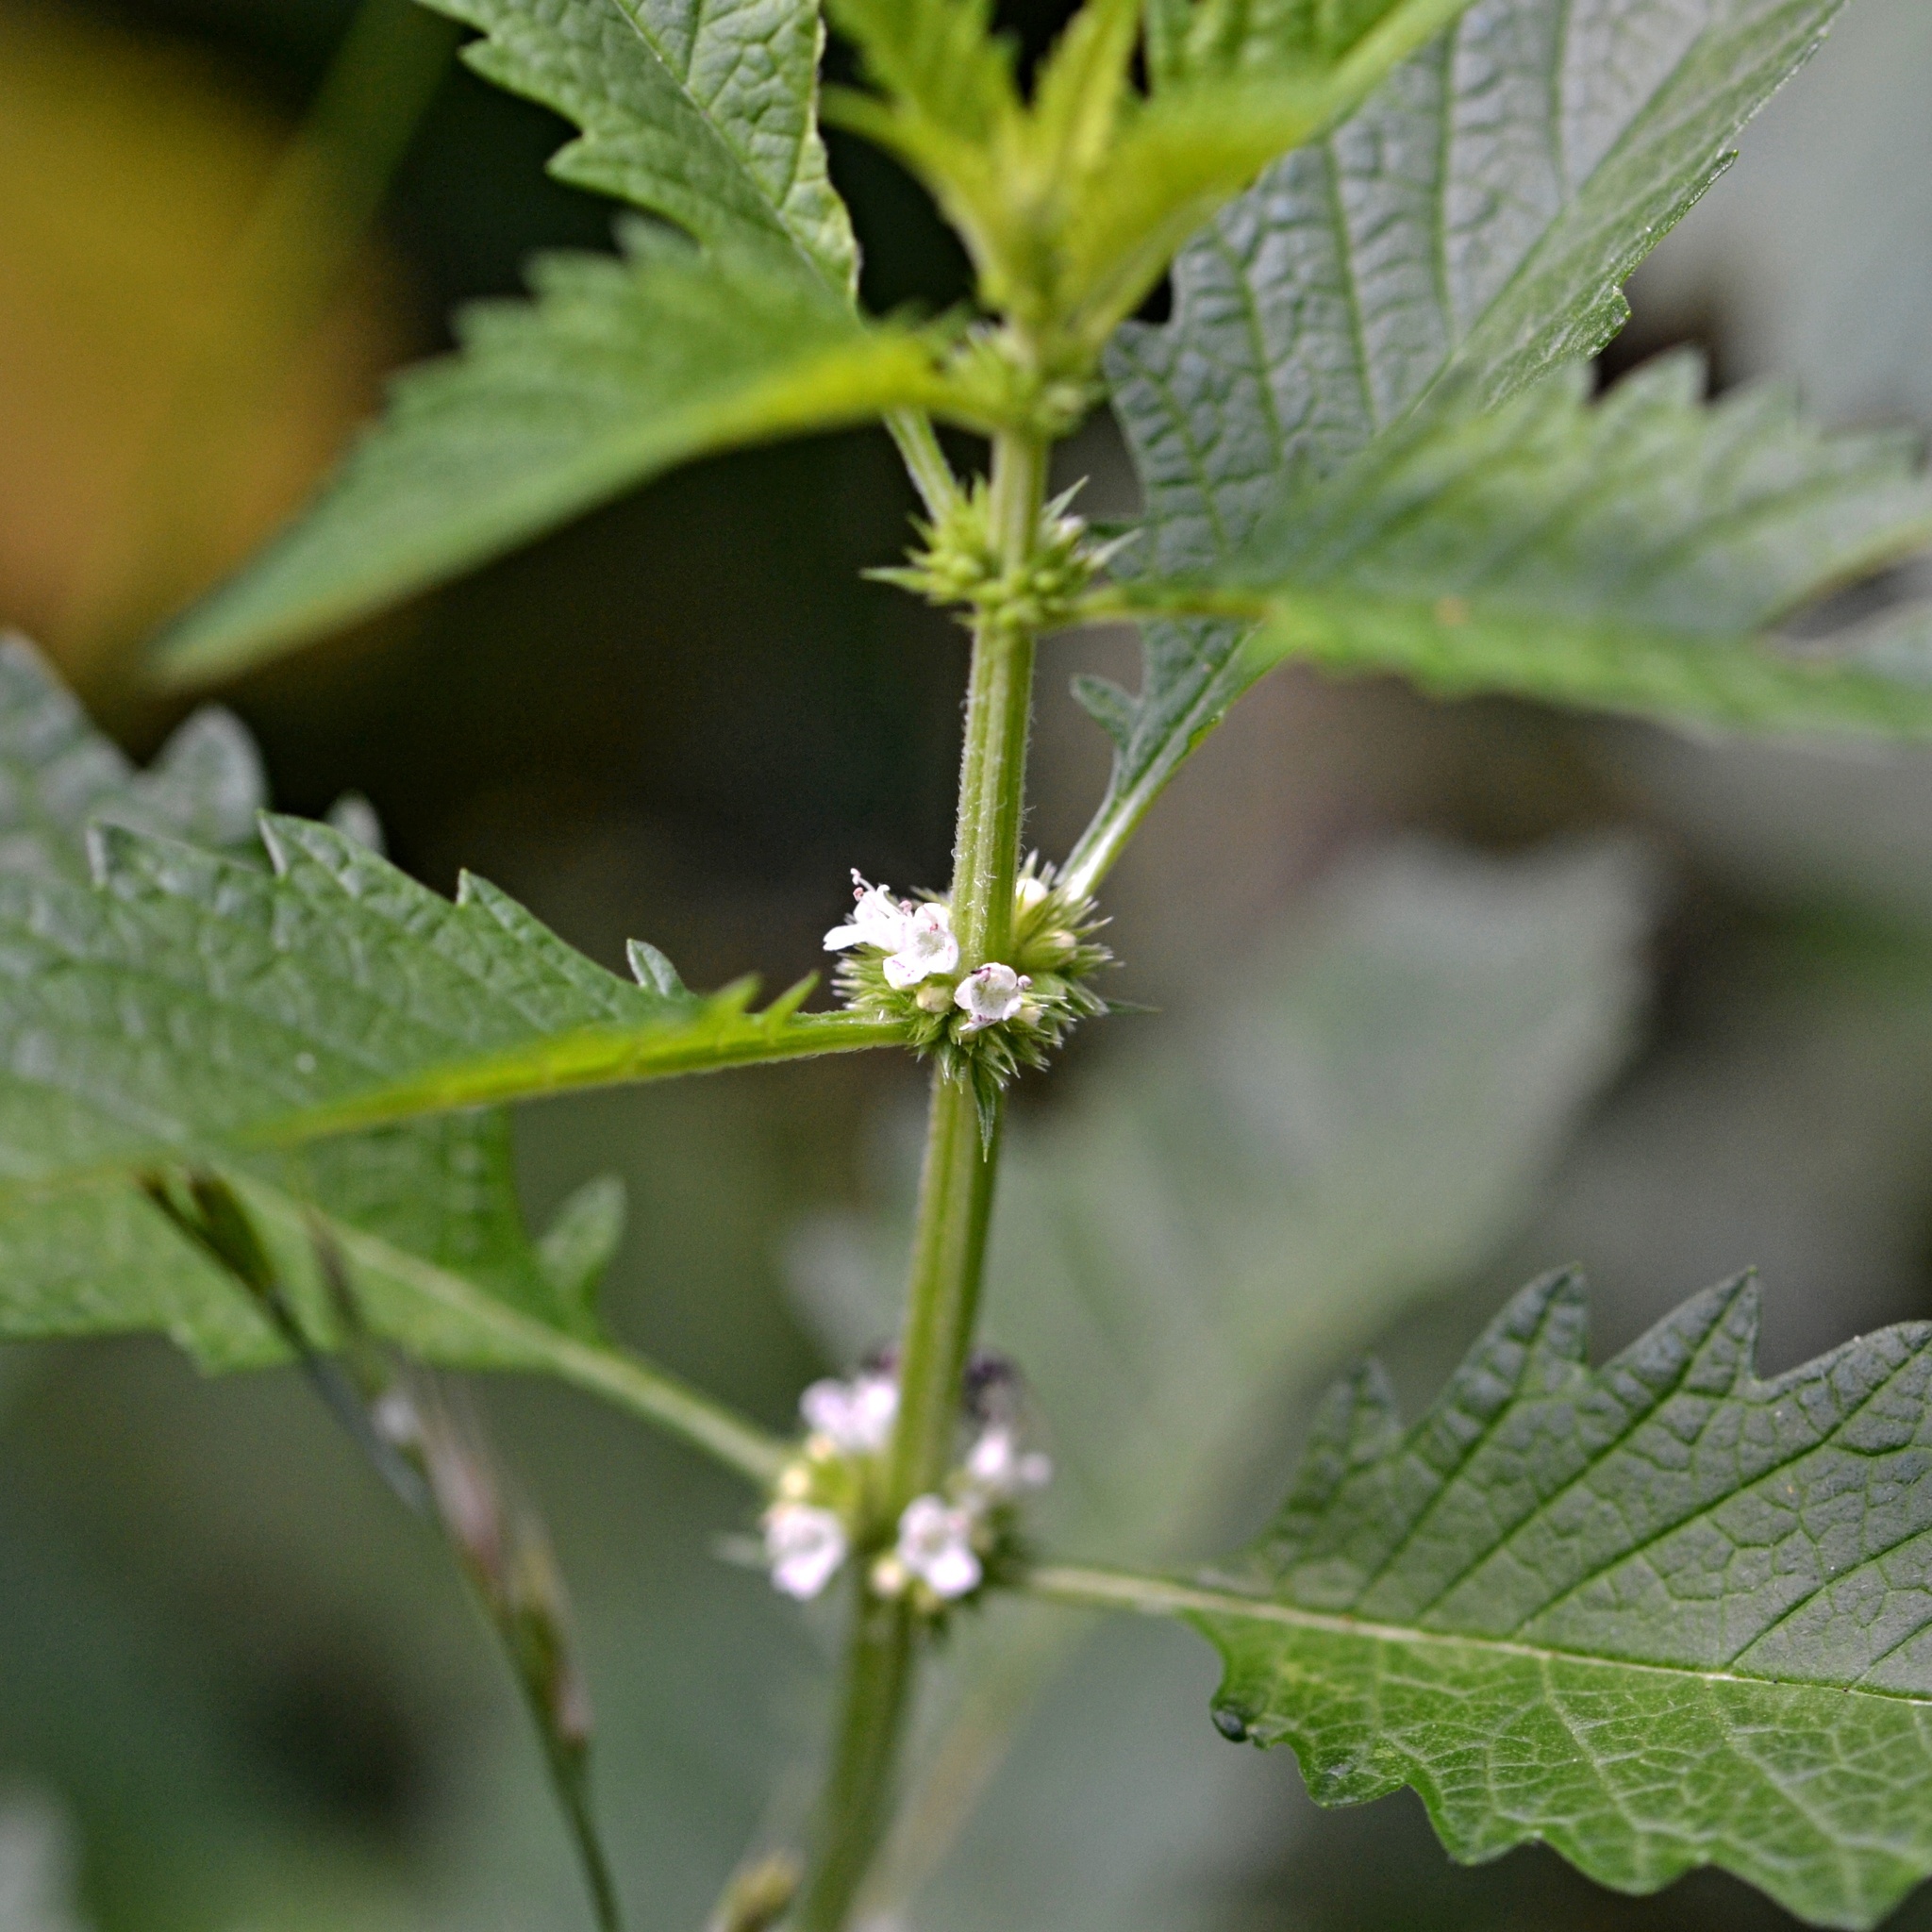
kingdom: Plantae
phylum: Tracheophyta
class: Magnoliopsida
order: Lamiales
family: Lamiaceae
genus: Lycopus
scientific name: Lycopus europaeus
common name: European bugleweed
